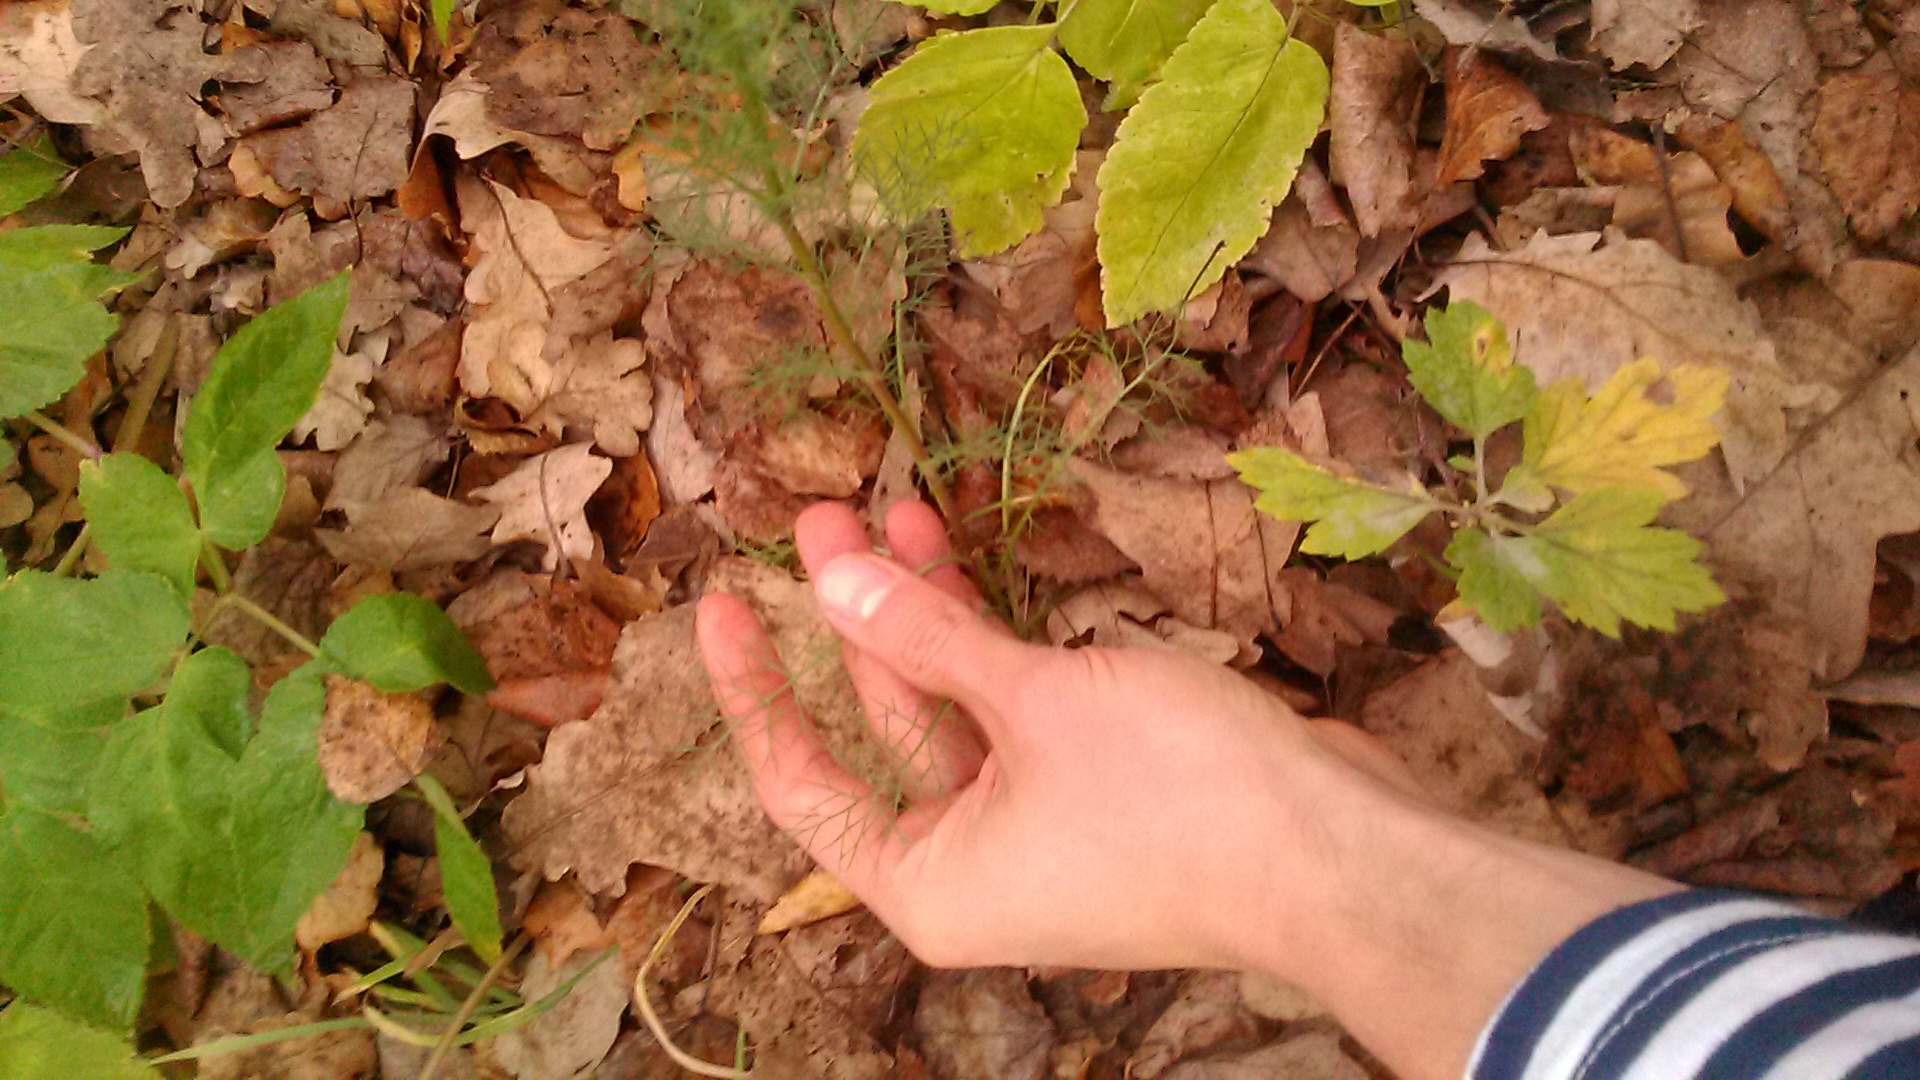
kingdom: Plantae
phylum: Tracheophyta
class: Magnoliopsida
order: Asterales
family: Asteraceae
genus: Tripleurospermum
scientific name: Tripleurospermum inodorum
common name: Scentless mayweed
